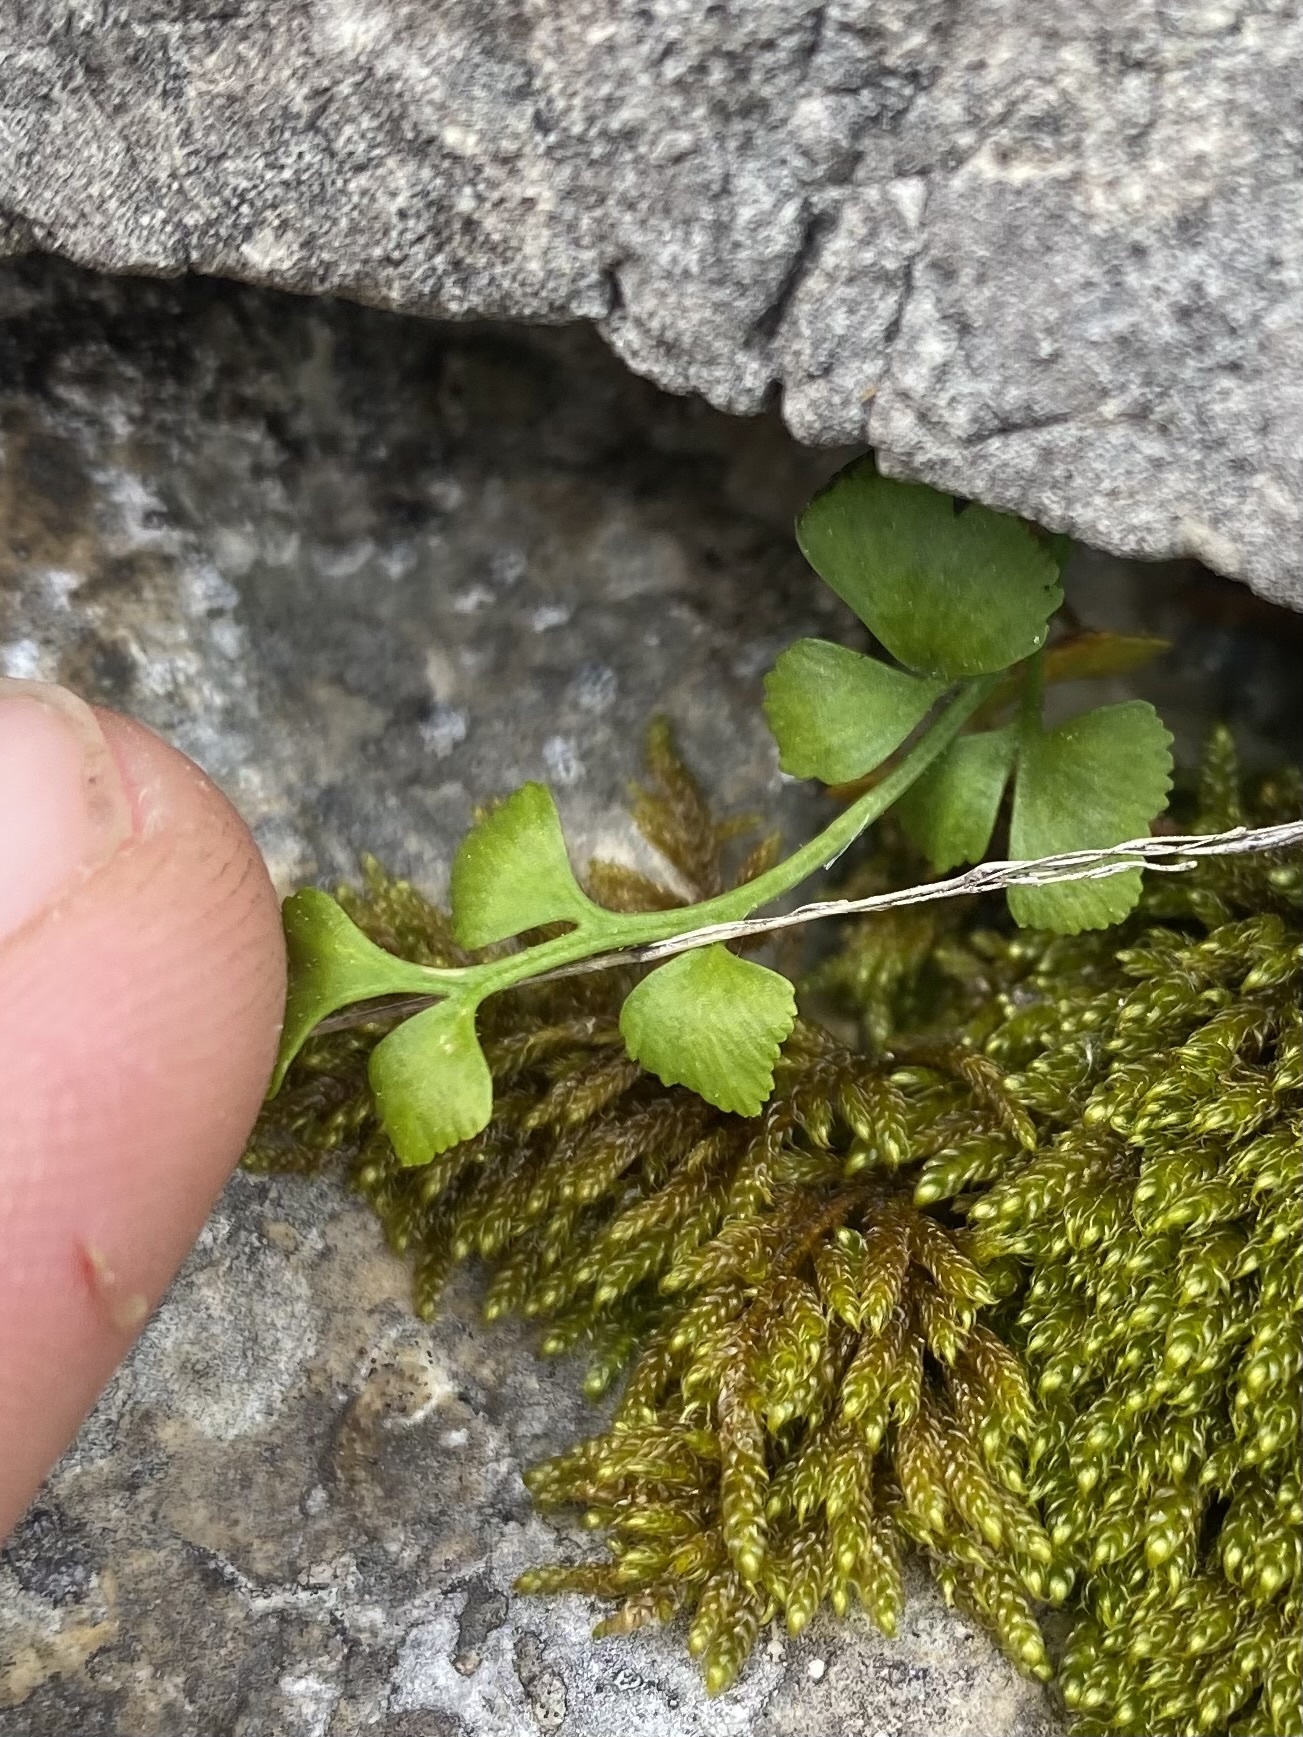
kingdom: Plantae
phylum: Tracheophyta
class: Polypodiopsida
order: Polypodiales
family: Aspleniaceae
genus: Asplenium
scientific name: Asplenium ruta-muraria
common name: Wall-rue
